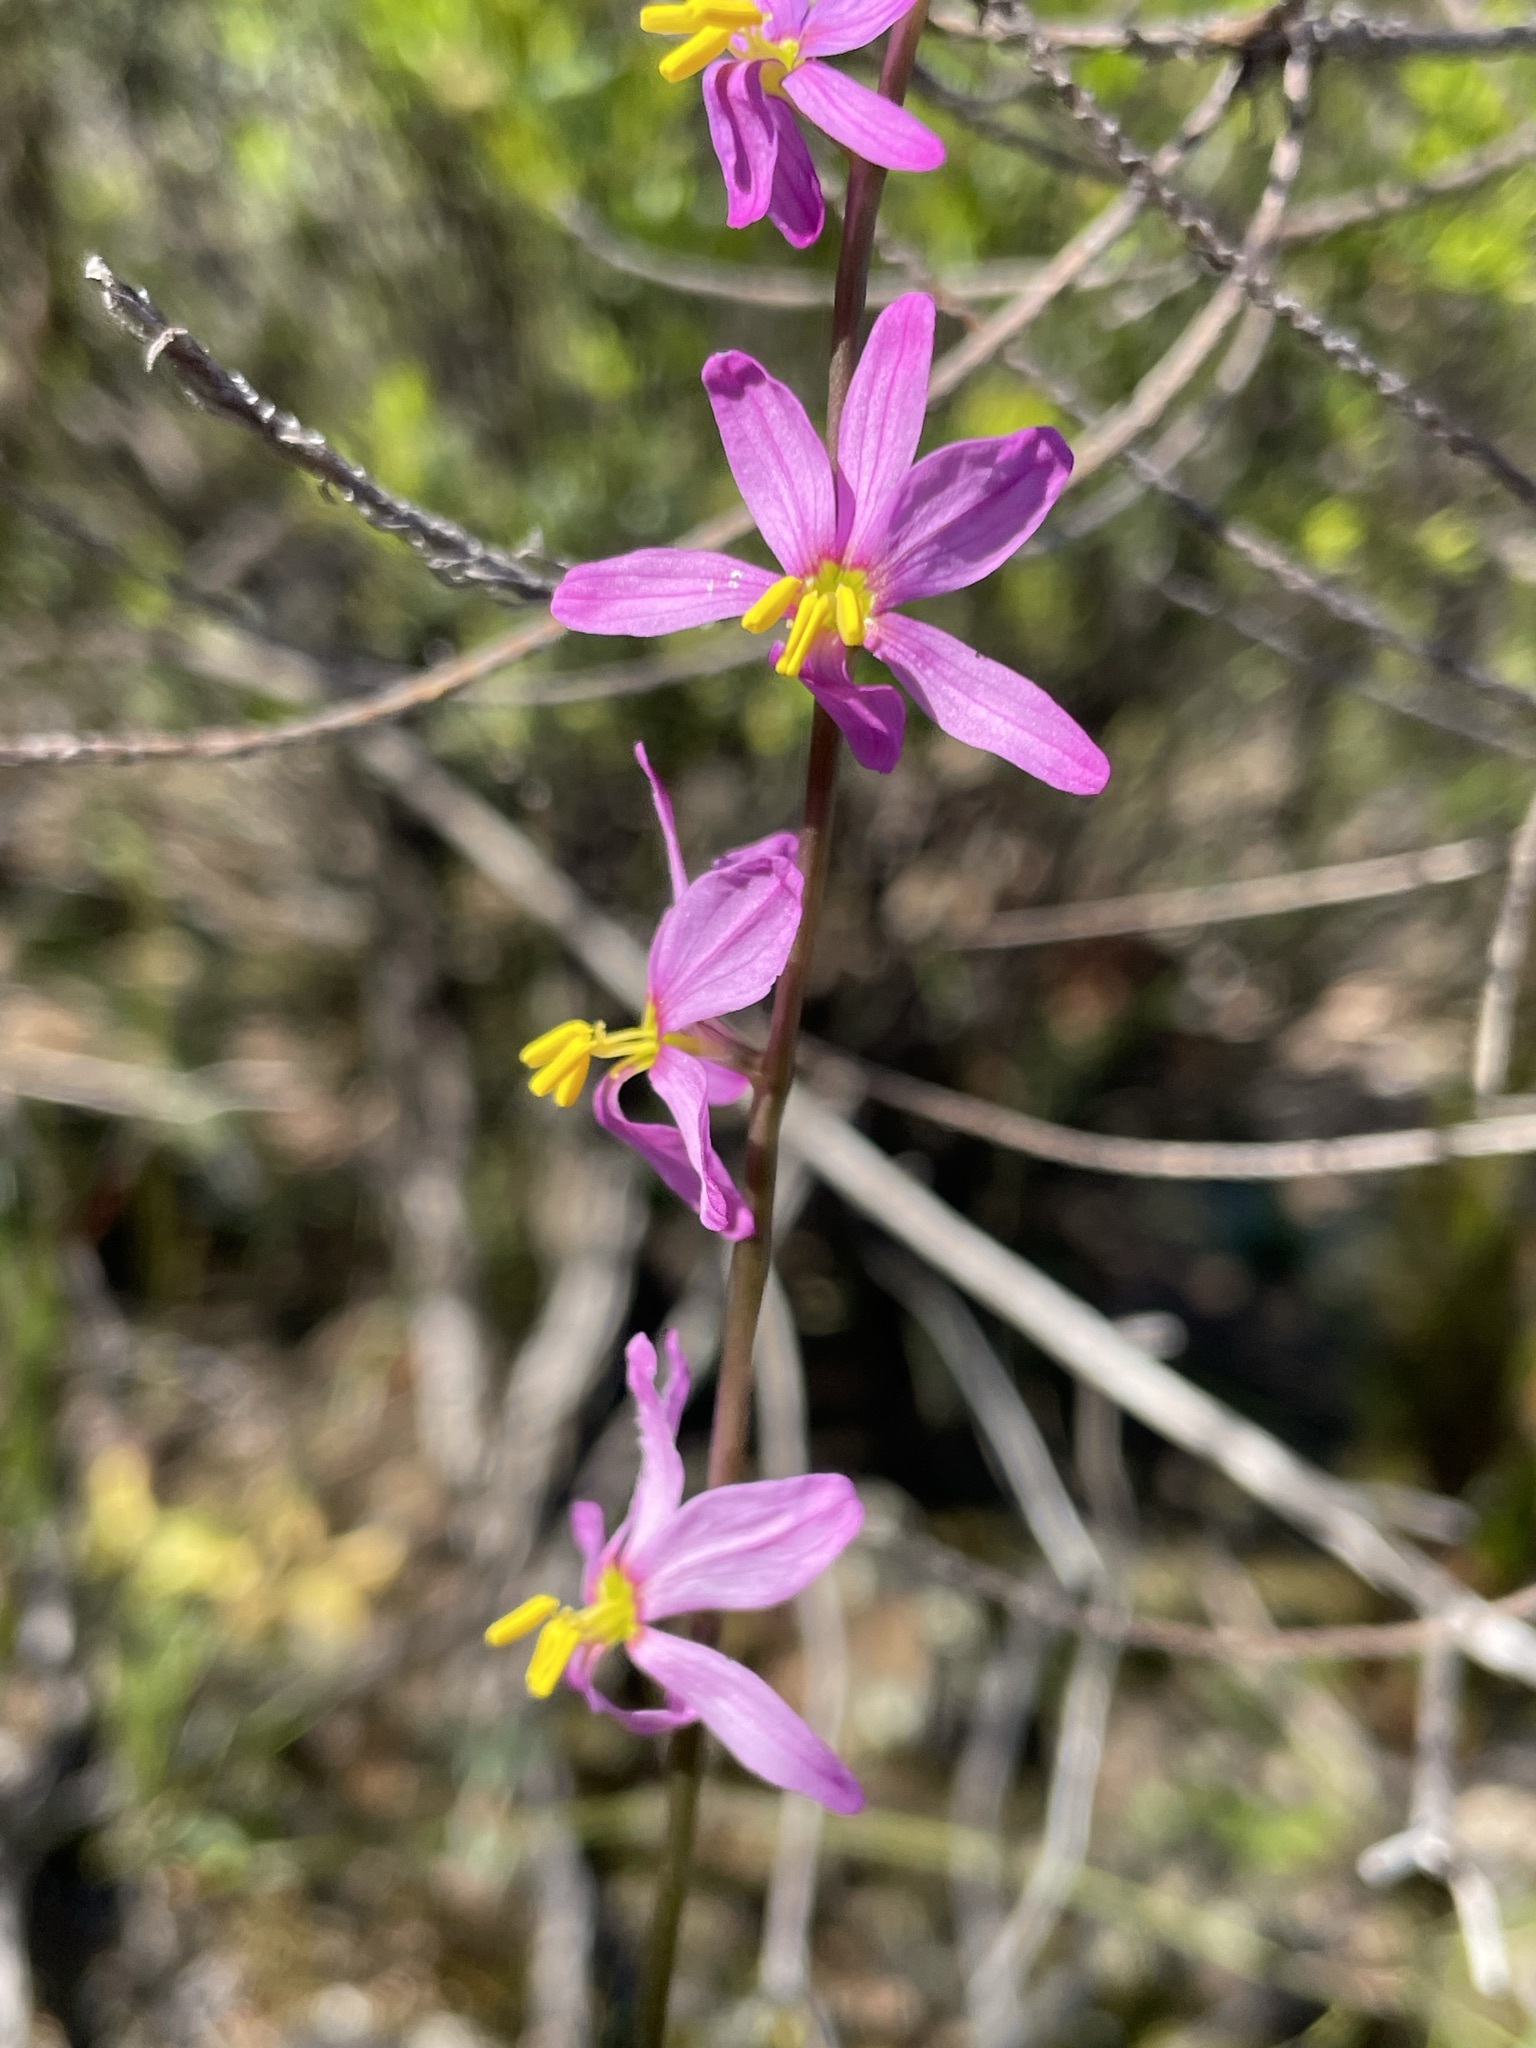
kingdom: Plantae
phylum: Tracheophyta
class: Liliopsida
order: Asparagales
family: Iridaceae
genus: Ixia
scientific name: Ixia scillaris
